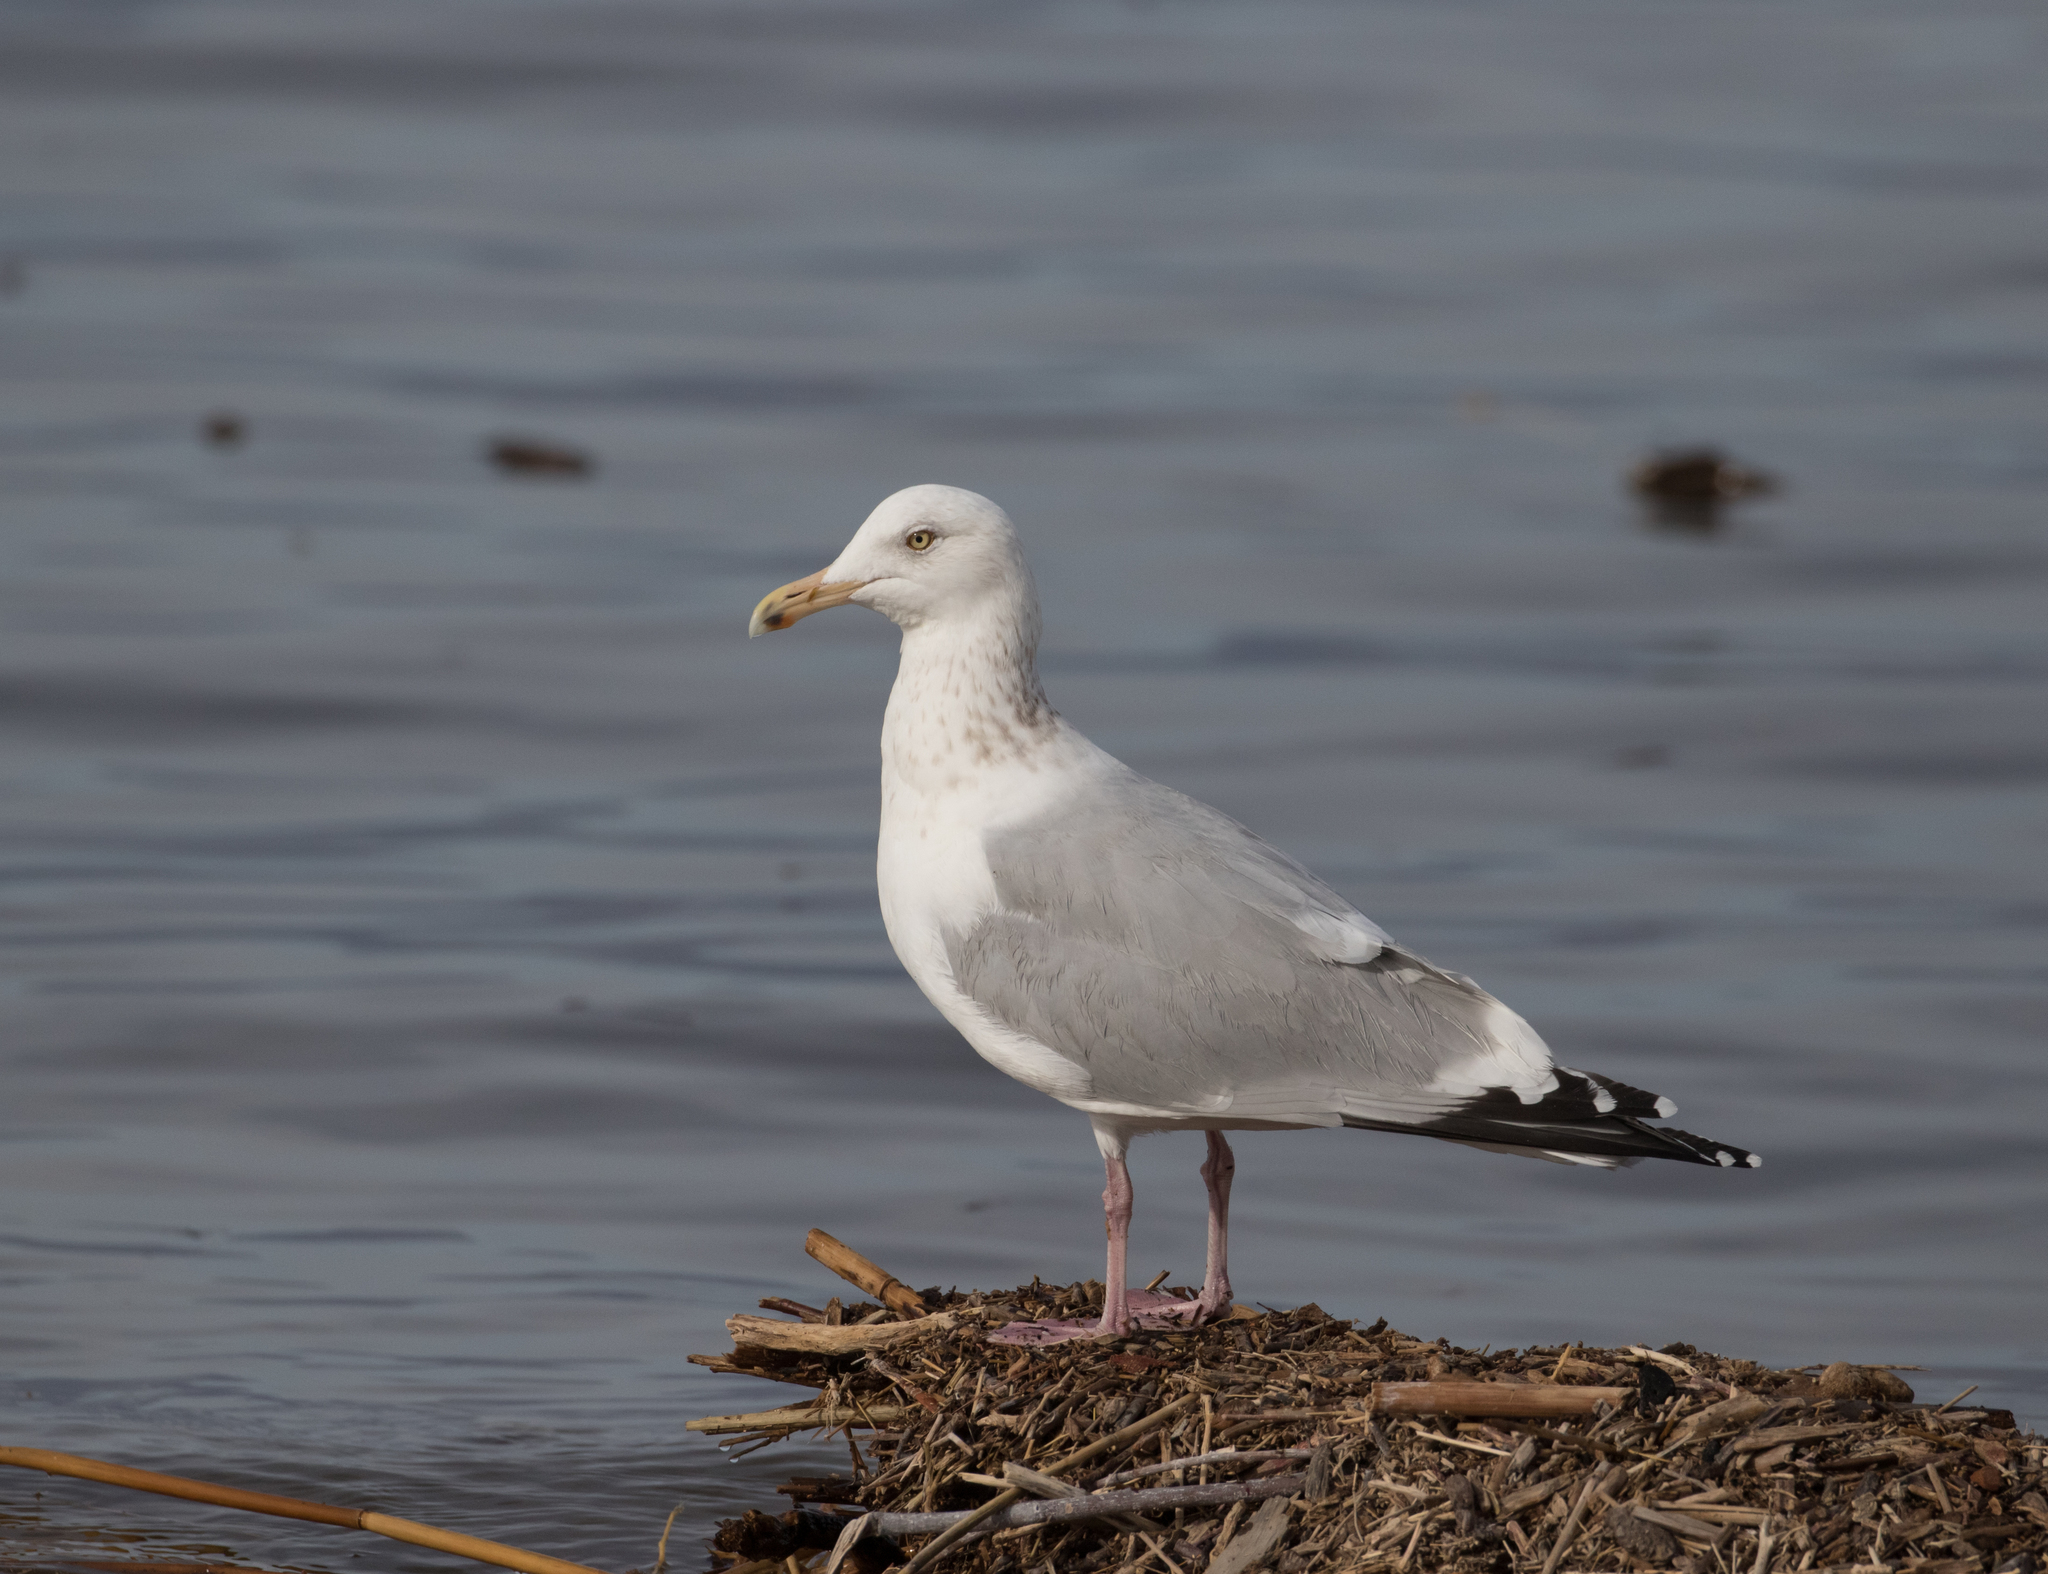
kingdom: Animalia
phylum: Chordata
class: Aves
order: Charadriiformes
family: Laridae
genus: Larus
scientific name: Larus argentatus
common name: Herring gull
